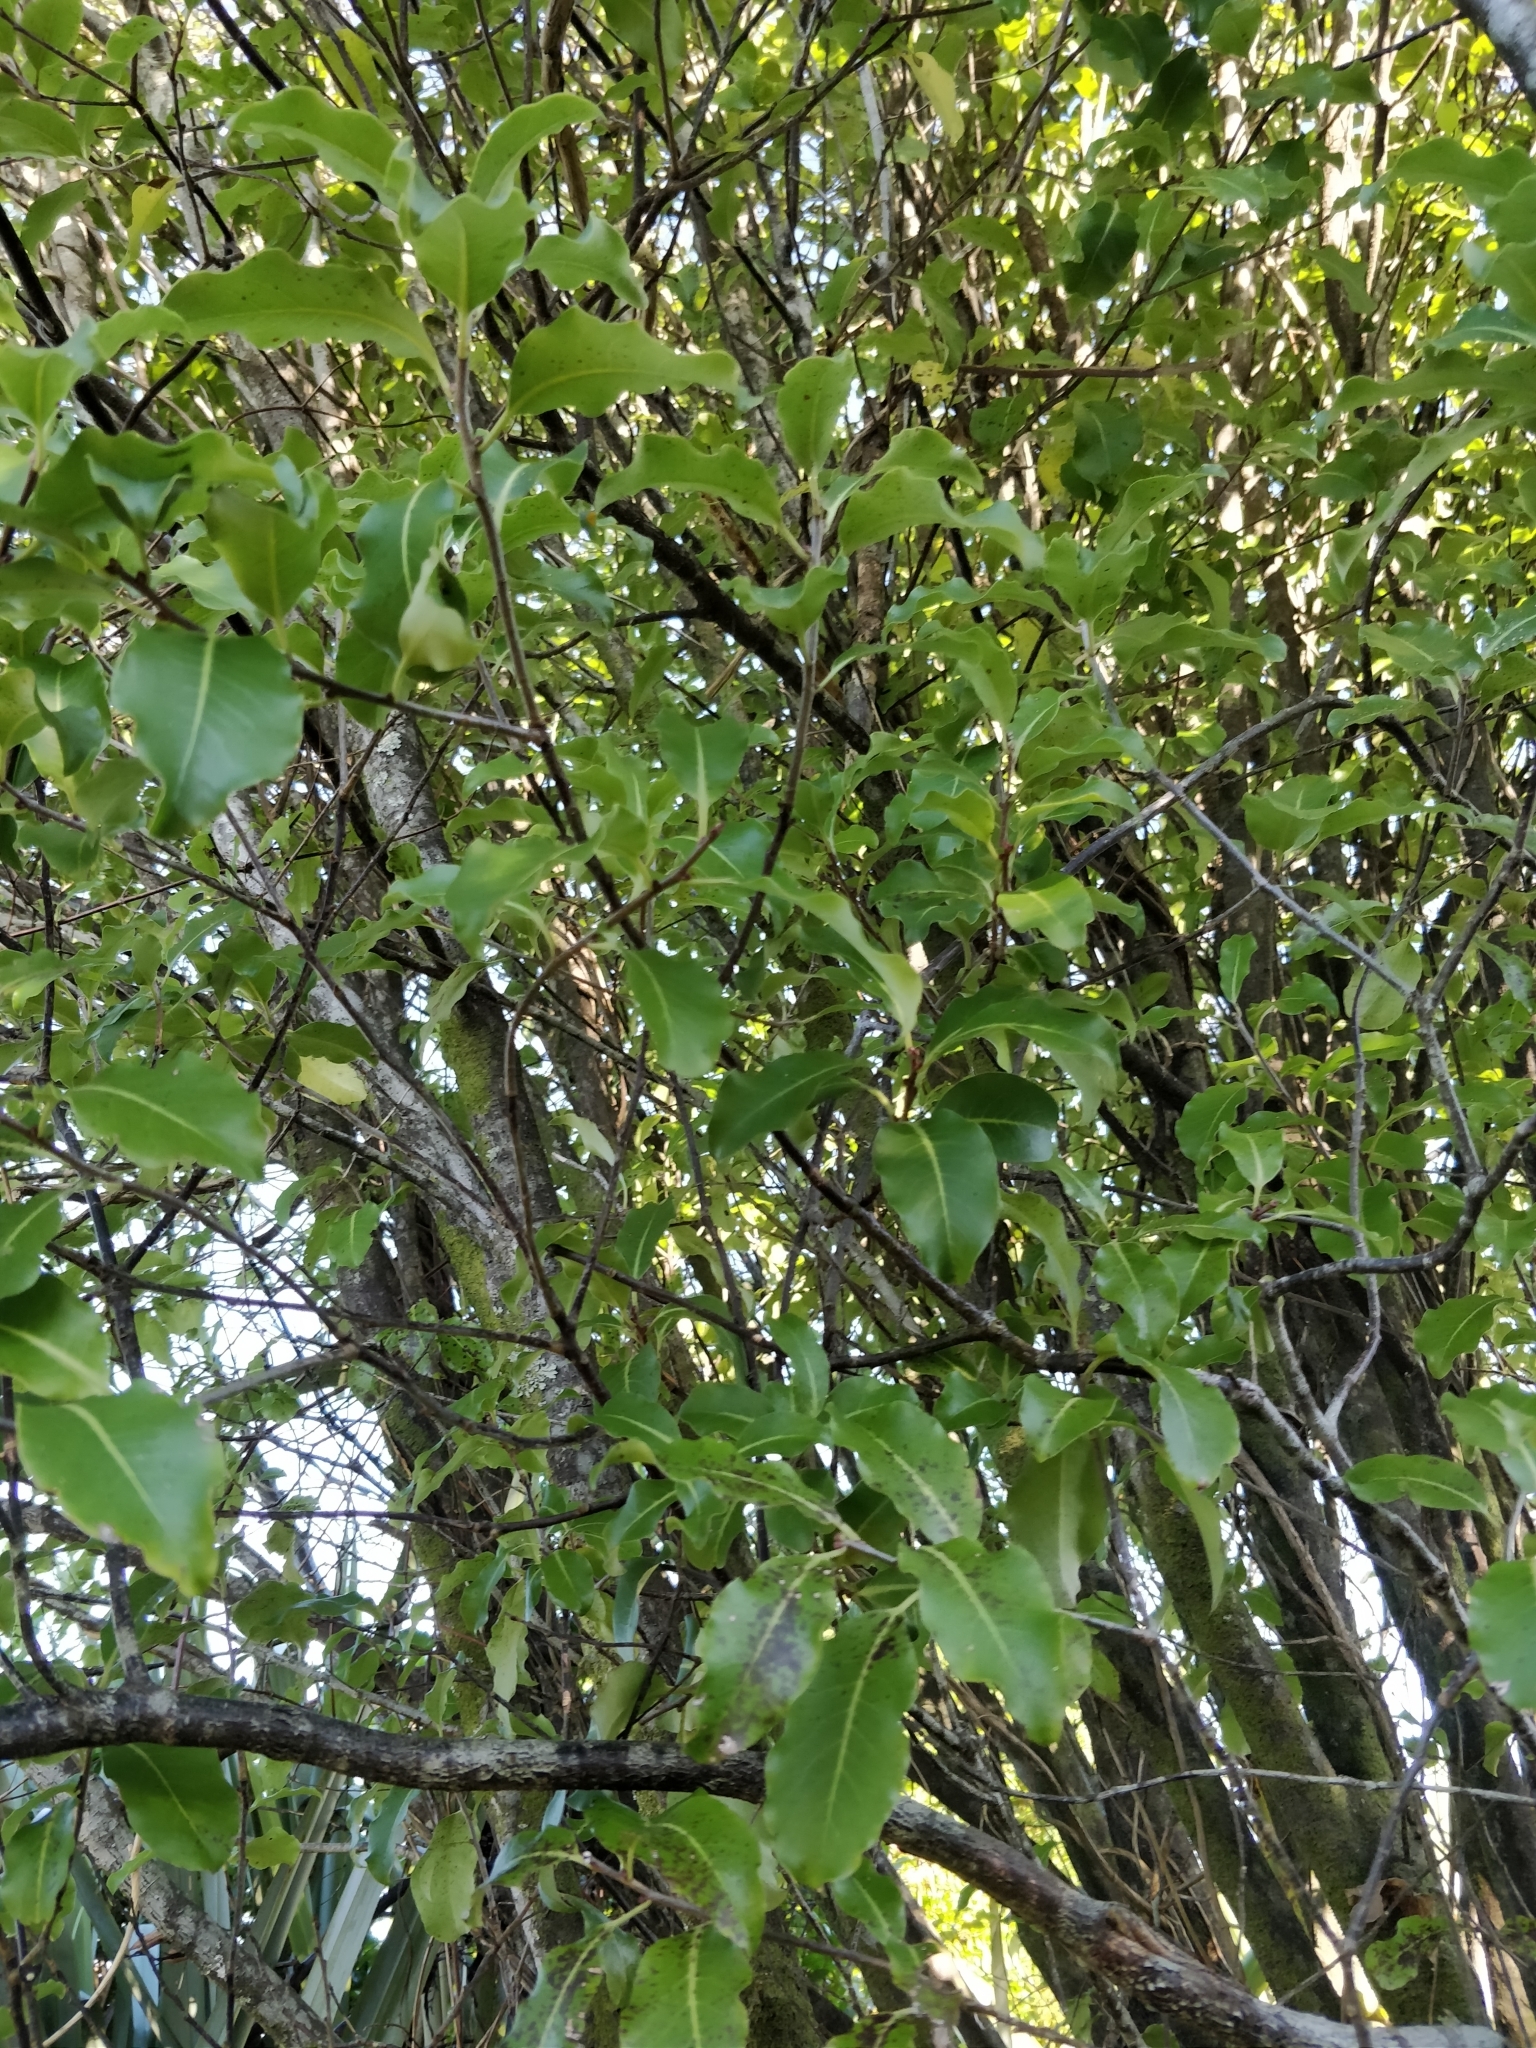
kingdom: Plantae
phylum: Tracheophyta
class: Magnoliopsida
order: Apiales
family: Pittosporaceae
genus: Pittosporum
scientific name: Pittosporum tenuifolium
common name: Kohuhu
